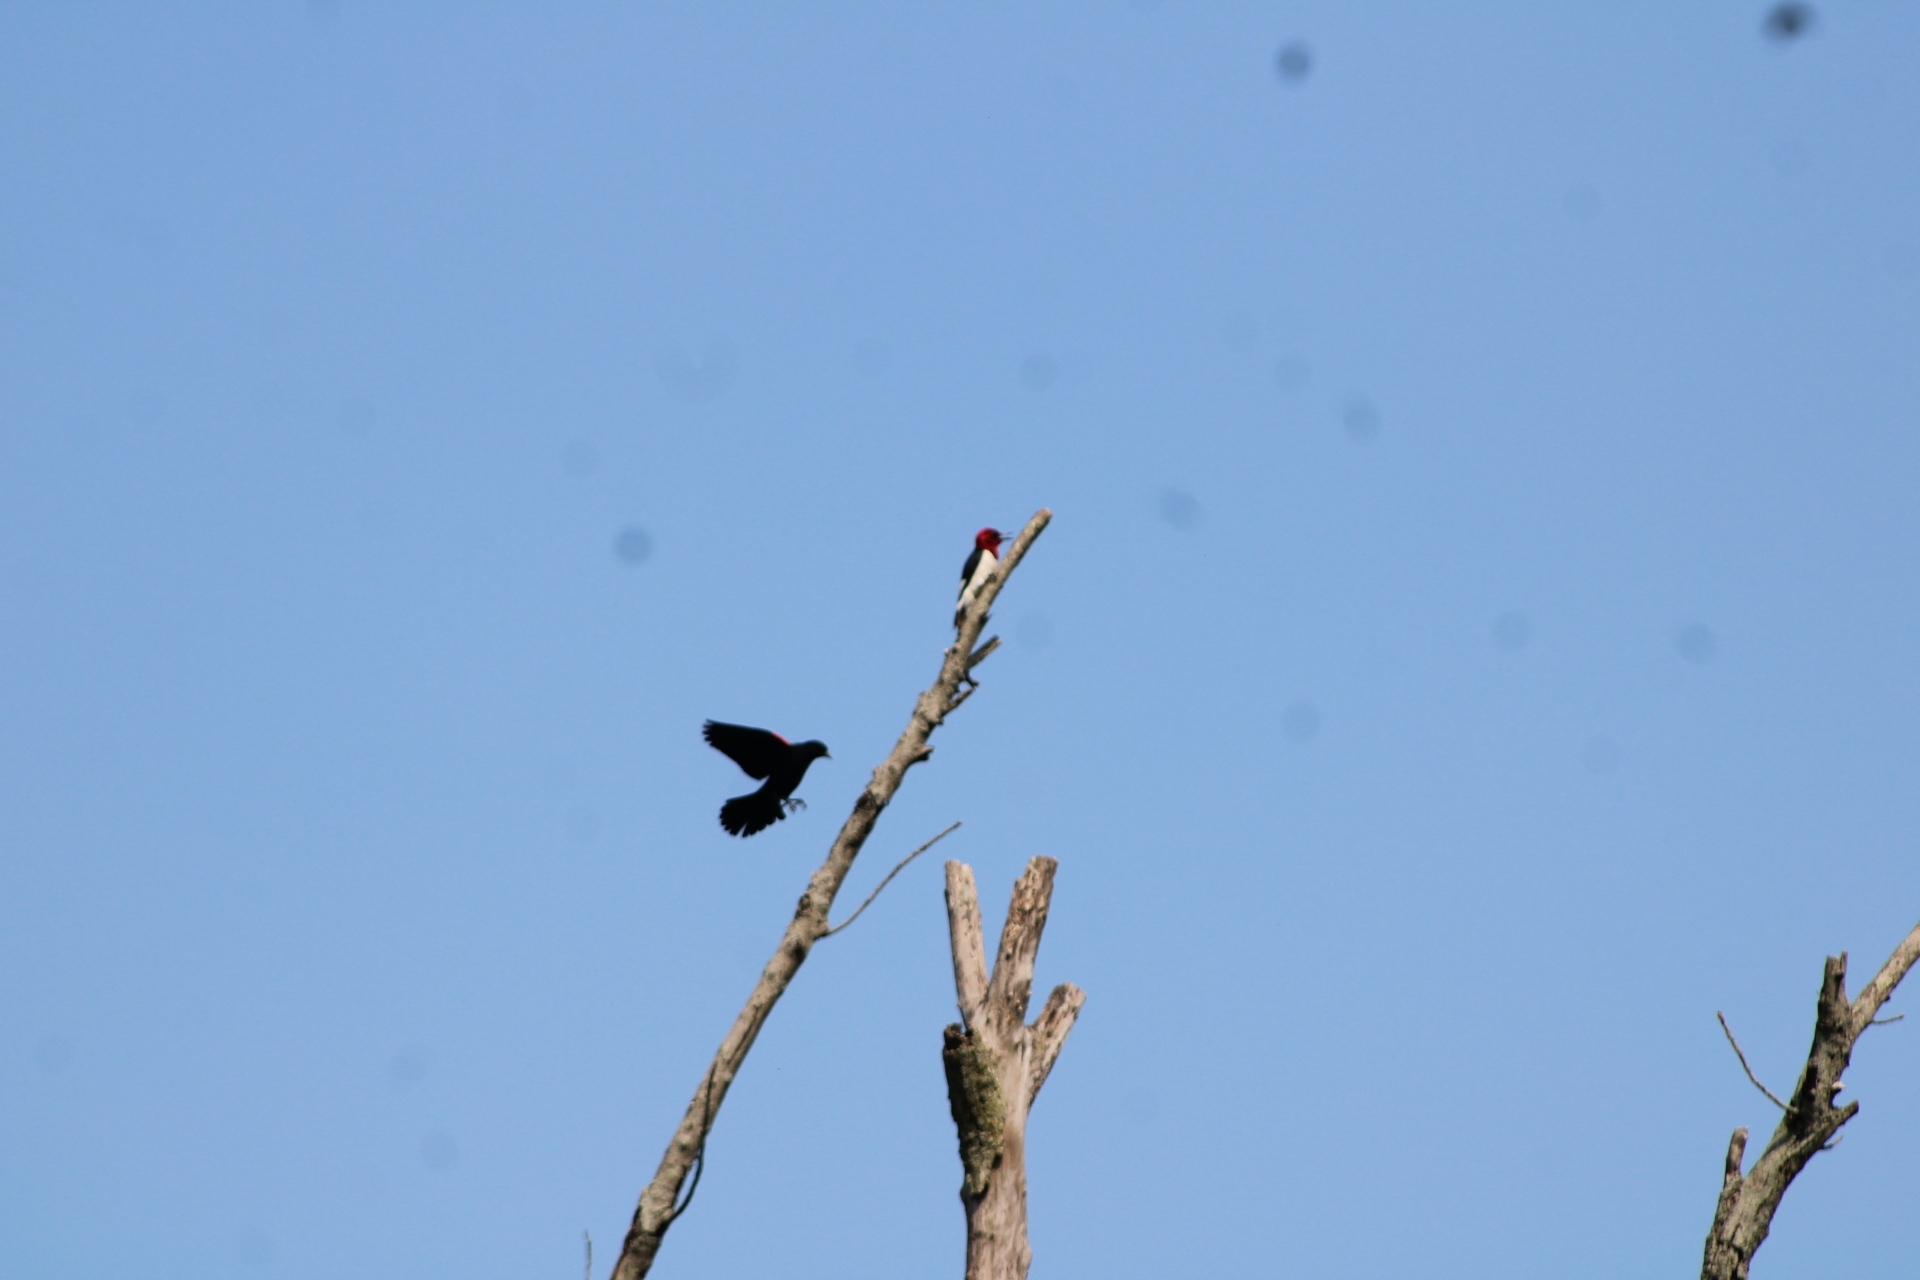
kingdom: Animalia
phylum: Chordata
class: Aves
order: Passeriformes
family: Icteridae
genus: Agelaius
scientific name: Agelaius phoeniceus
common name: Red-winged blackbird
